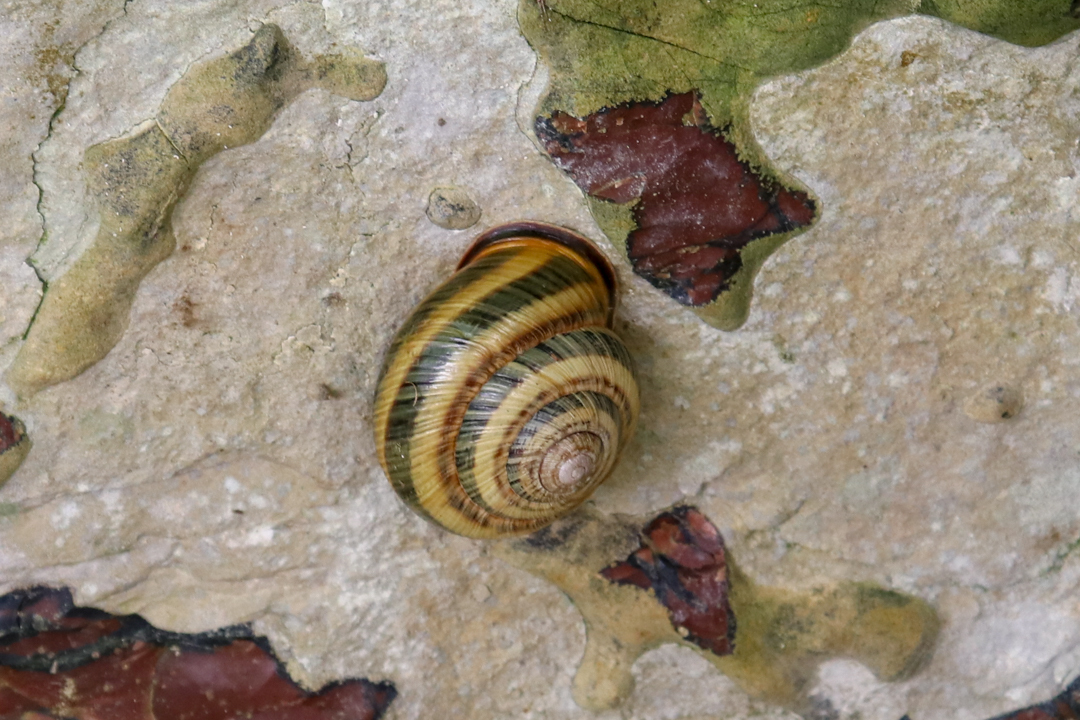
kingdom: Animalia
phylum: Mollusca
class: Gastropoda
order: Stylommatophora
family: Helicidae
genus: Caucasotachea
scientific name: Caucasotachea atrolabiata
